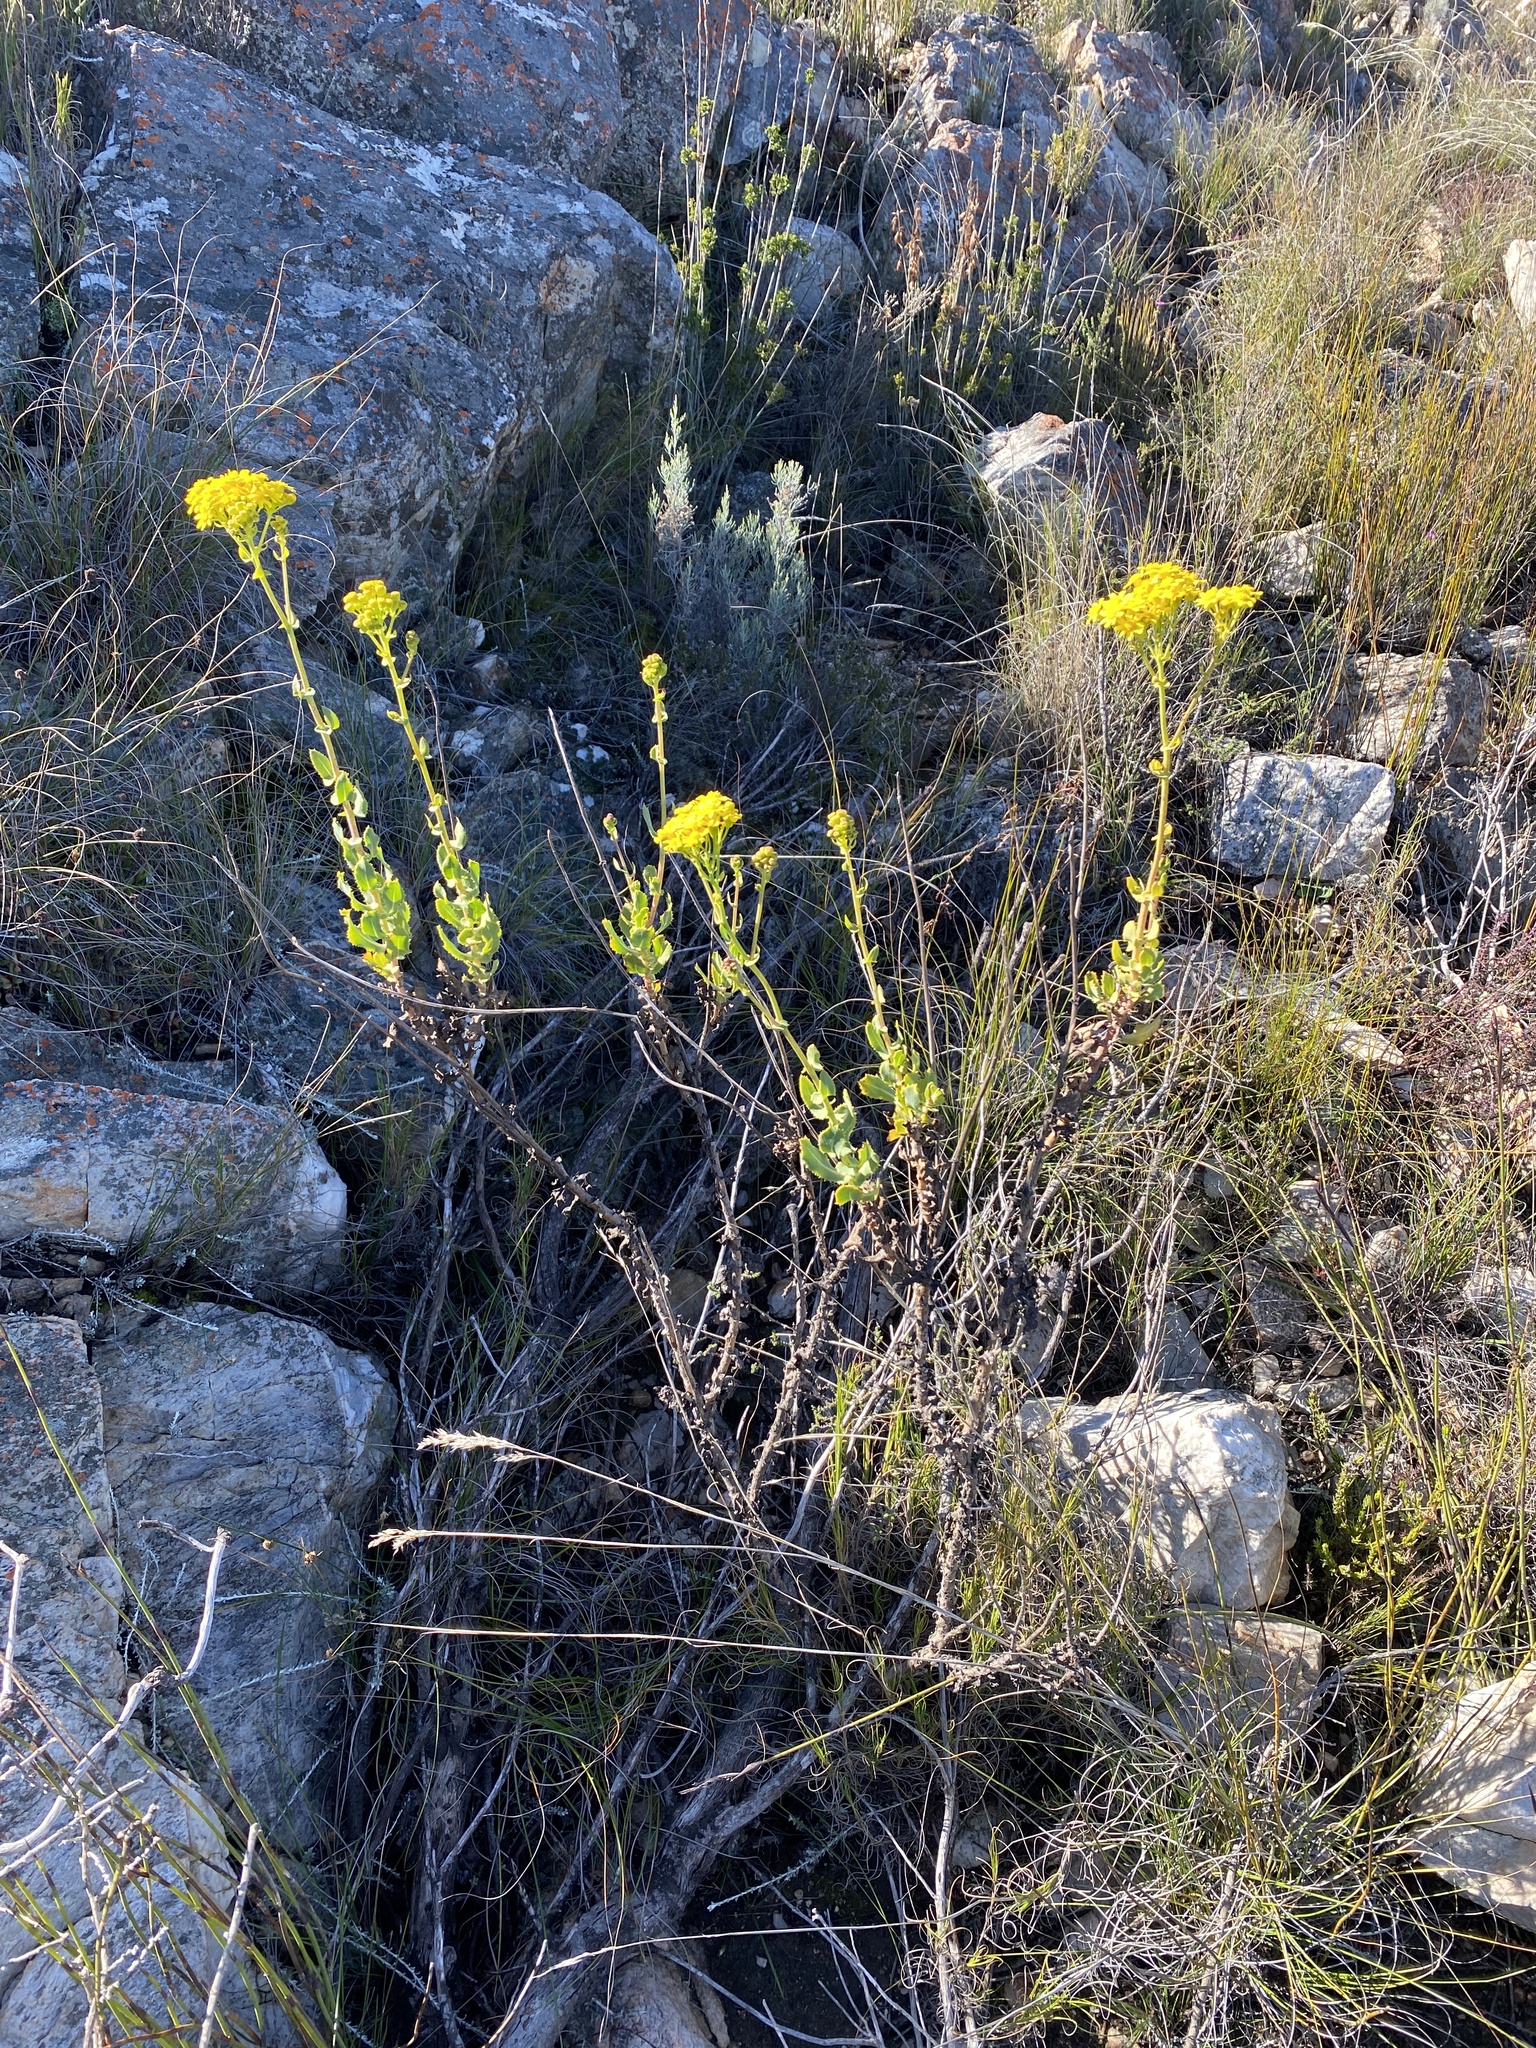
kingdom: Plantae
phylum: Tracheophyta
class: Magnoliopsida
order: Asterales
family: Asteraceae
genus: Othonna
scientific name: Othonna parviflora
